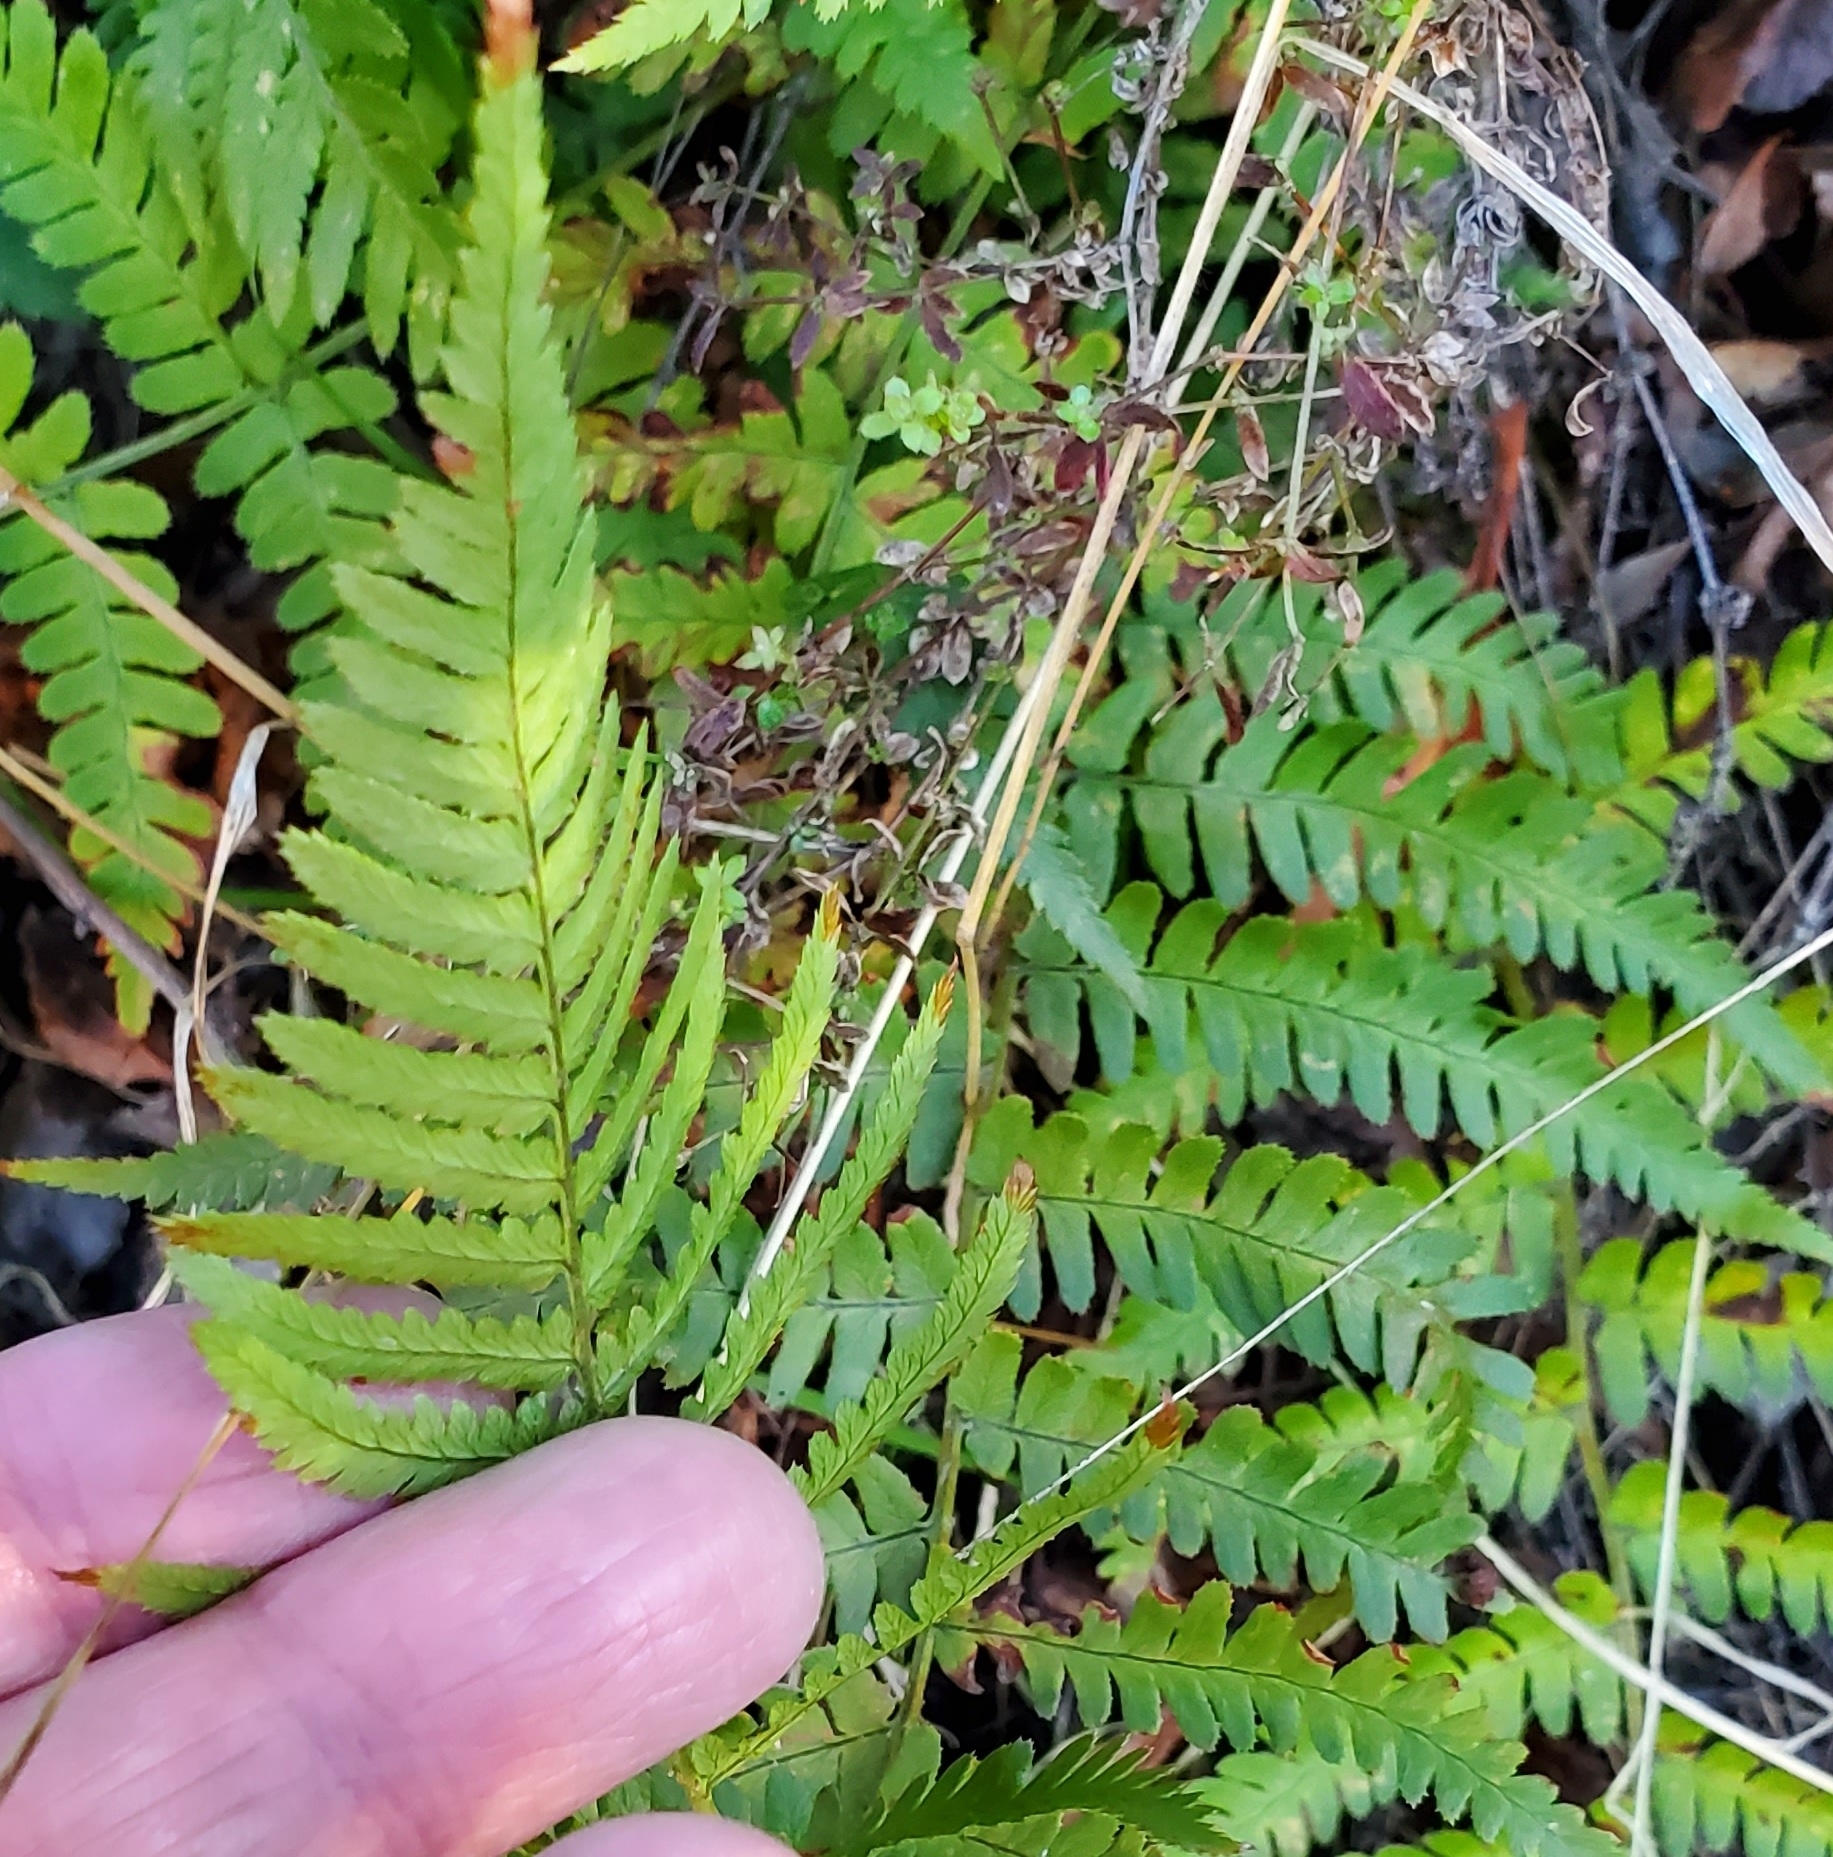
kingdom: Plantae
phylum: Tracheophyta
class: Polypodiopsida
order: Polypodiales
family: Dryopteridaceae
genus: Dryopteris
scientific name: Dryopteris arguta
